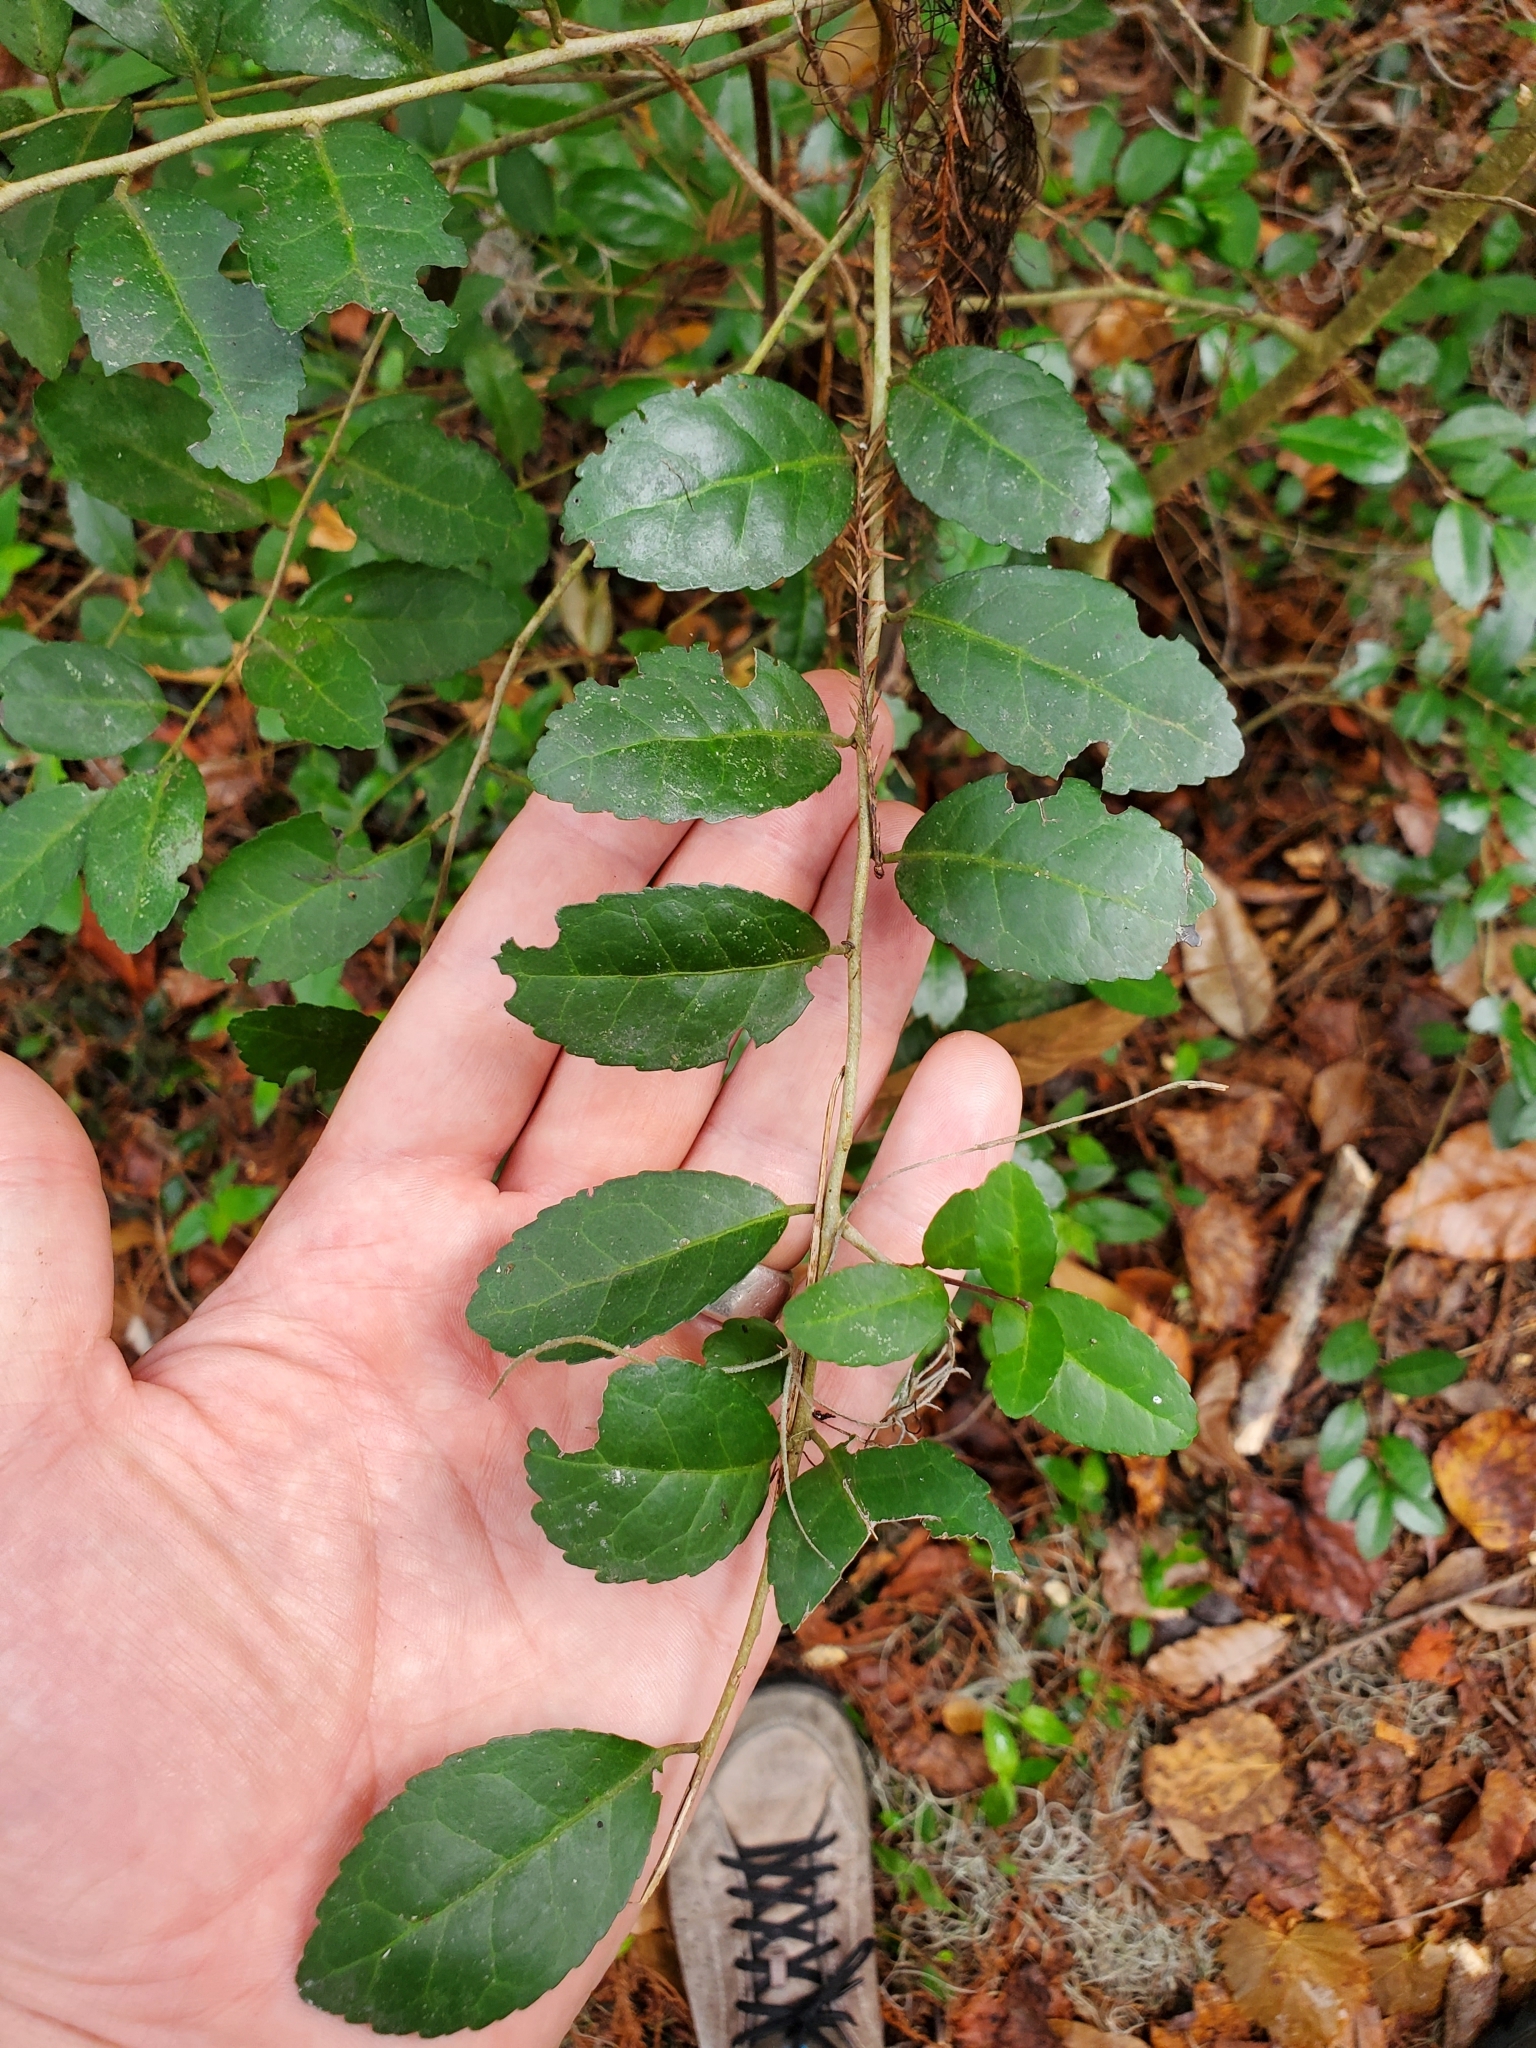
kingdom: Plantae
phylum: Tracheophyta
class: Magnoliopsida
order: Aquifoliales
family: Aquifoliaceae
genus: Ilex
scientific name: Ilex vomitoria
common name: Yaupon holly
